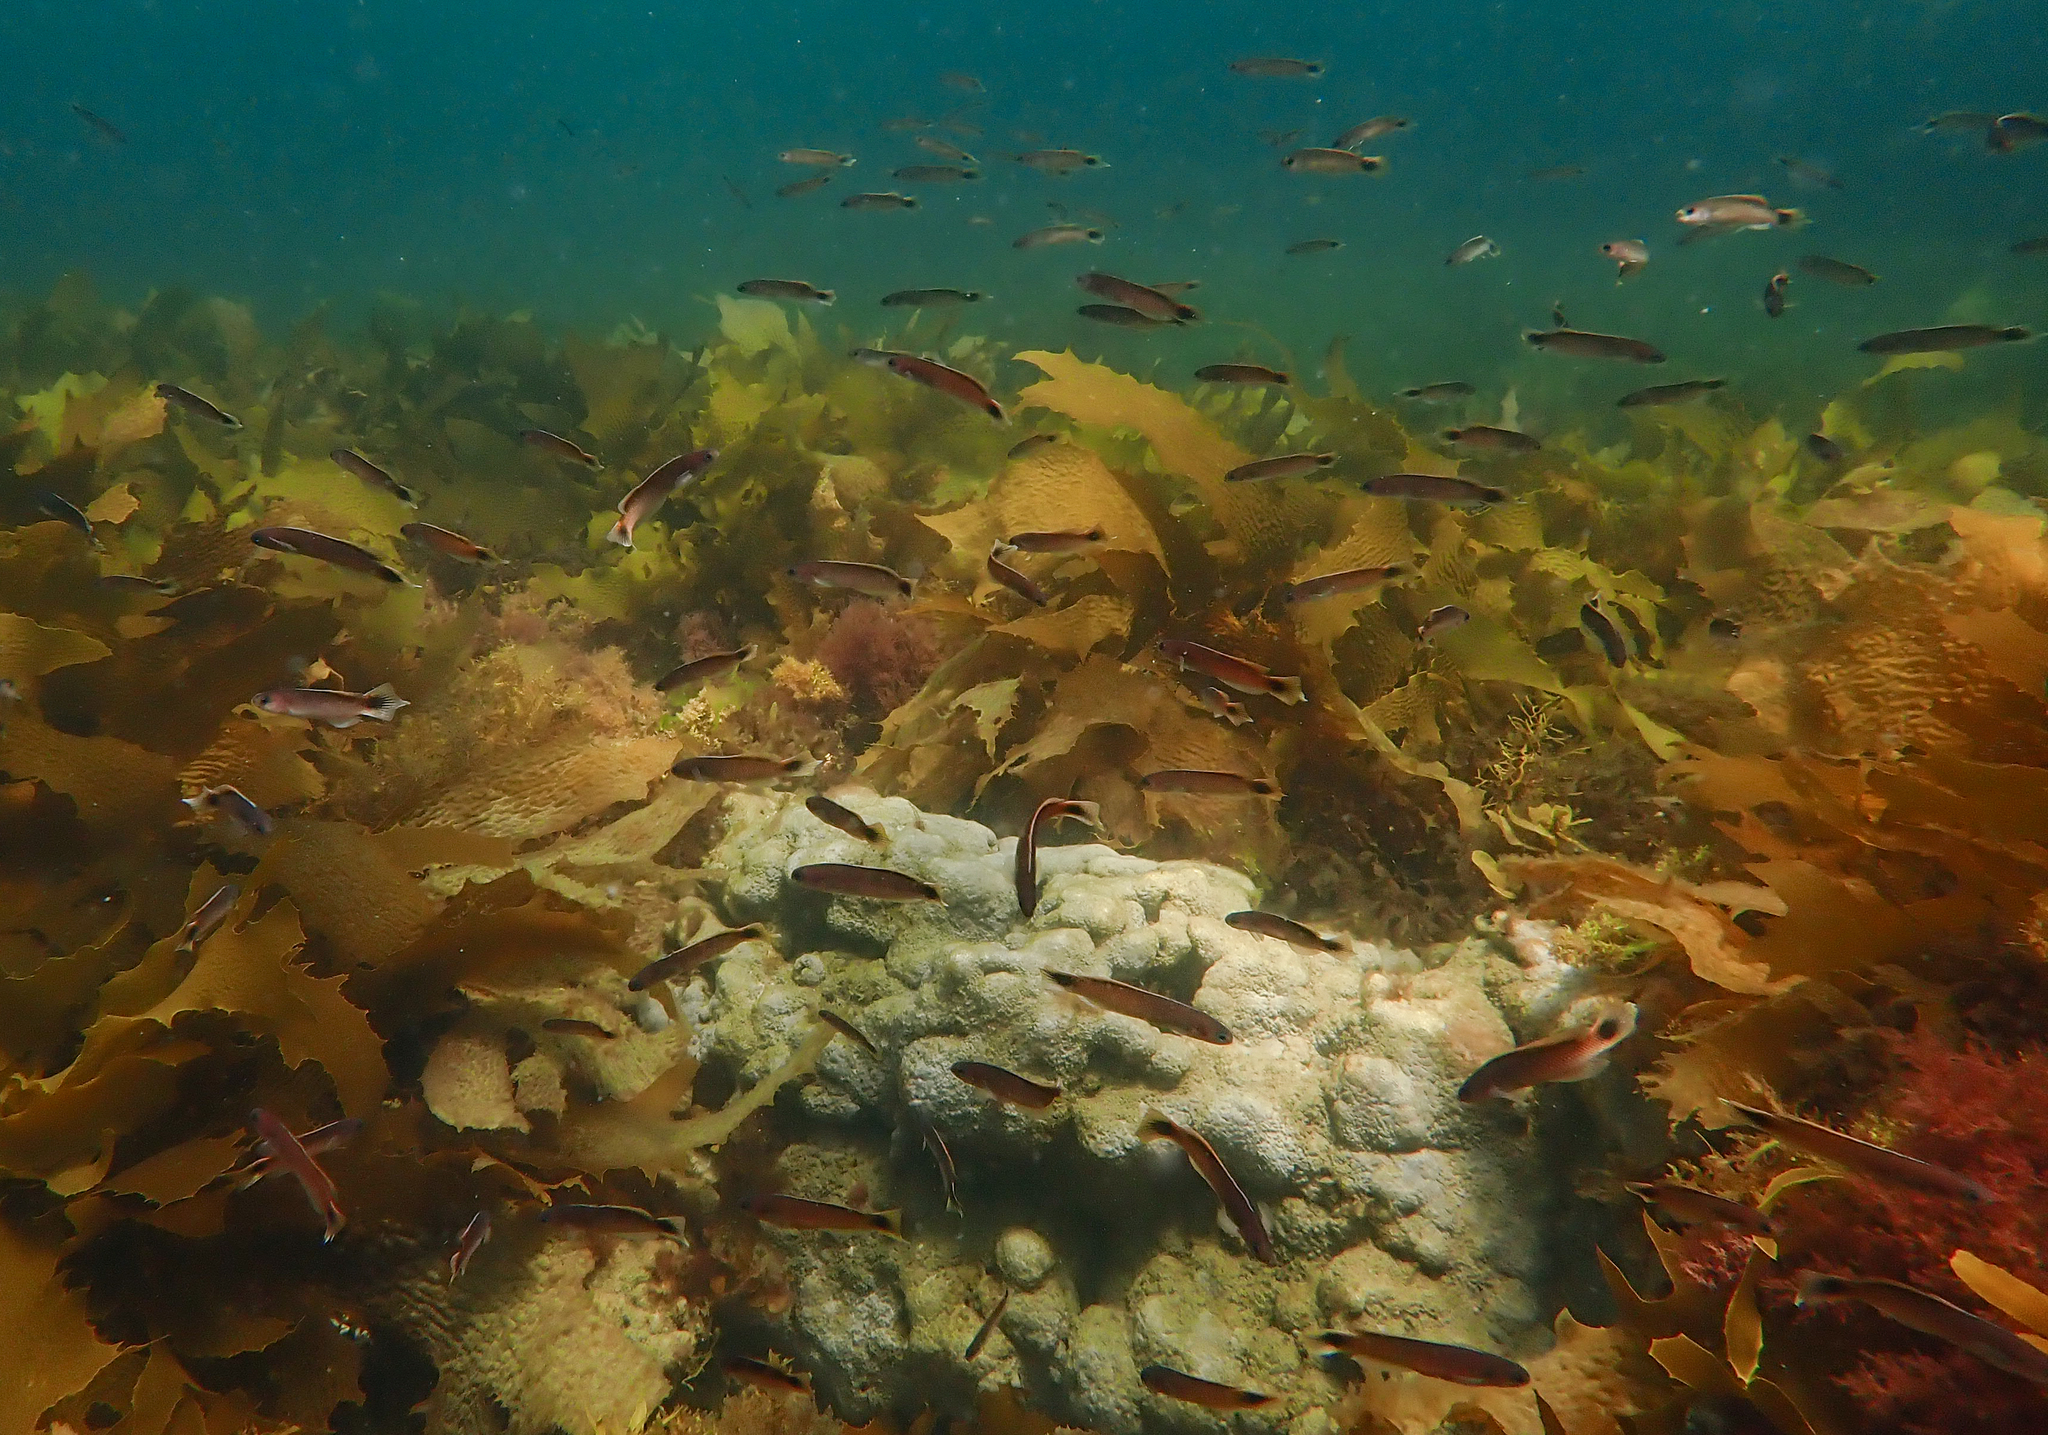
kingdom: Animalia
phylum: Chordata
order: Perciformes
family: Plesiopidae
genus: Trachinops
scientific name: Trachinops caudimaculatus
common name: Blotched-tailed trachinops
